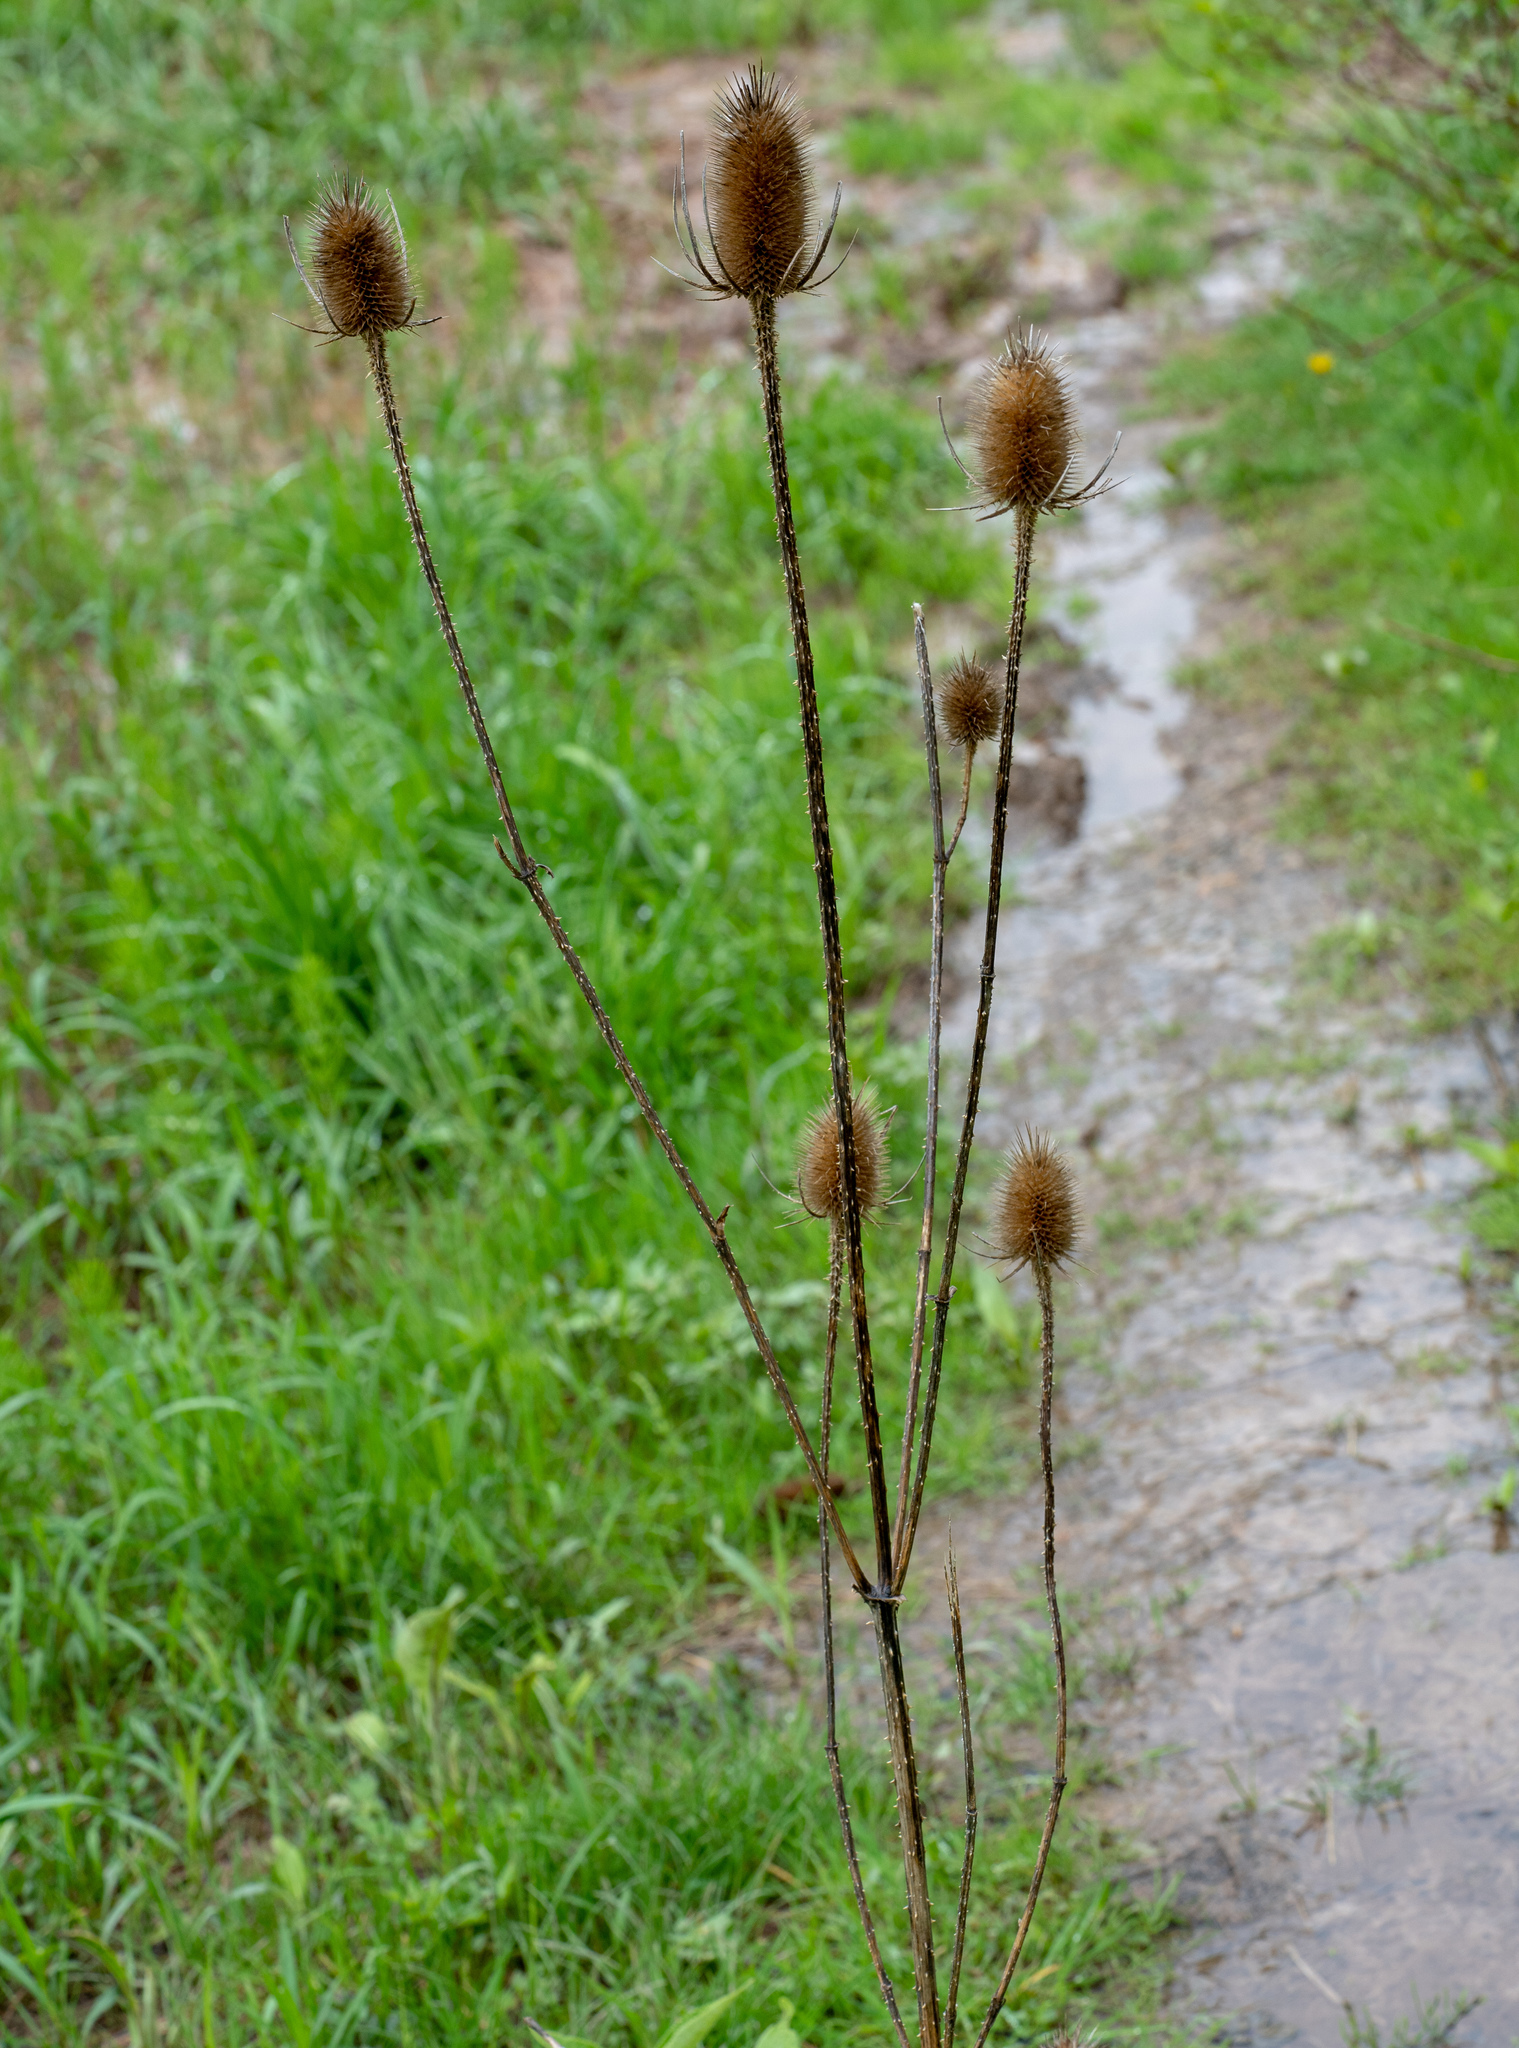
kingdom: Plantae
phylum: Tracheophyta
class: Magnoliopsida
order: Dipsacales
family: Caprifoliaceae
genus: Dipsacus
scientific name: Dipsacus fullonum
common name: Teasel
